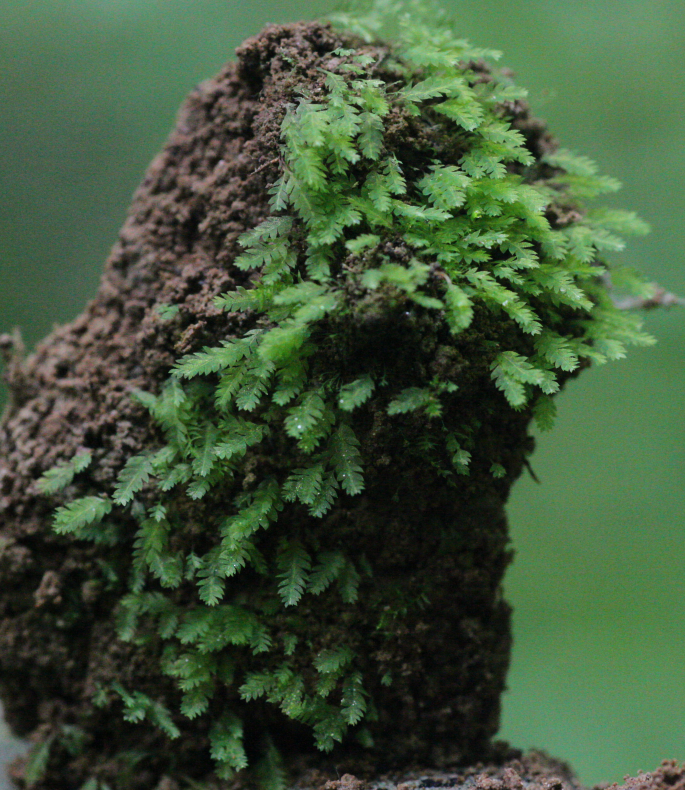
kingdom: Plantae
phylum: Bryophyta
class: Bryopsida
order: Dicranales
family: Schistostegaceae
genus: Schistostega
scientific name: Schistostega pennata
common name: Luminous moss
